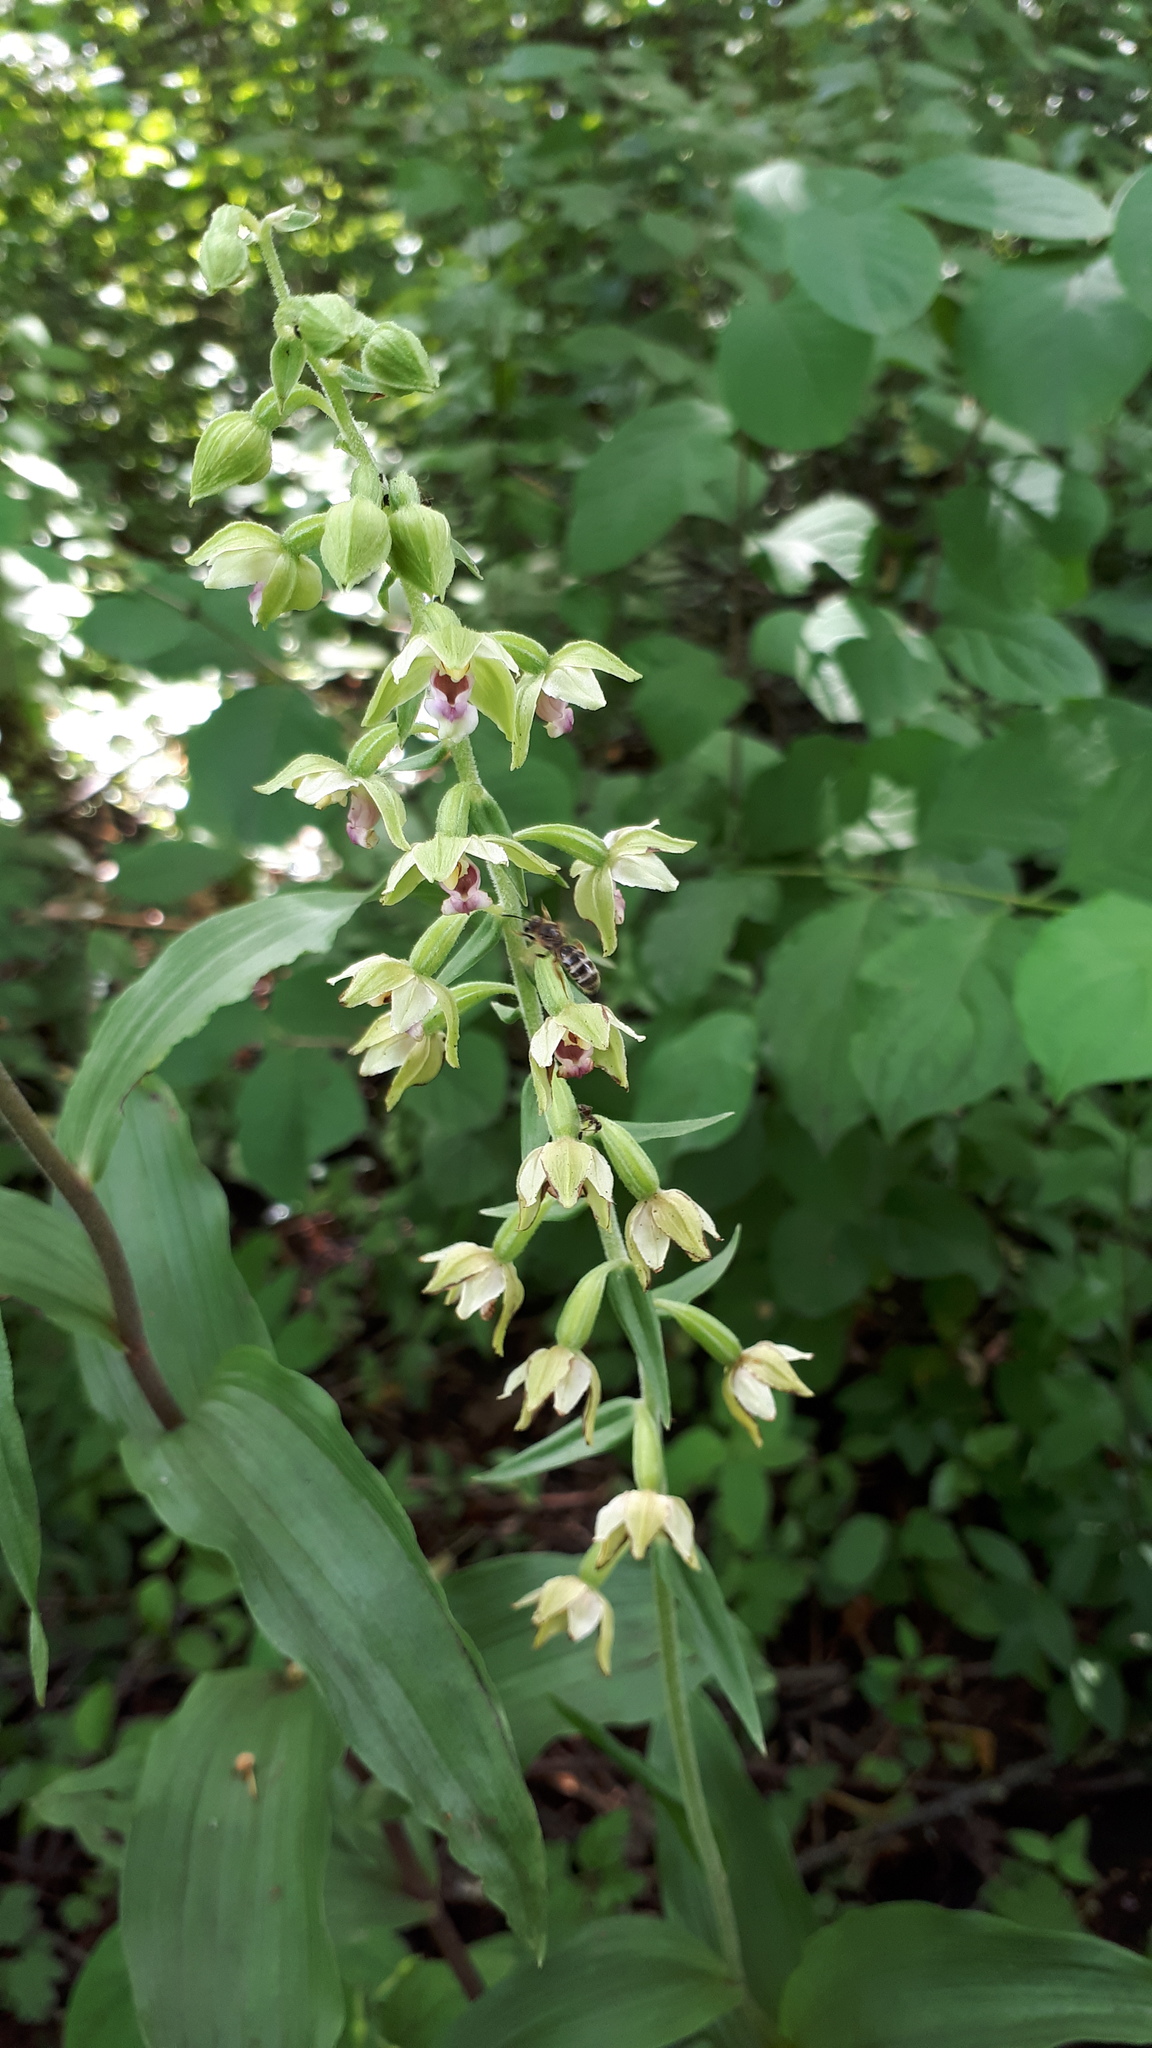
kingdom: Plantae
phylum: Tracheophyta
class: Liliopsida
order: Asparagales
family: Orchidaceae
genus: Epipactis
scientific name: Epipactis helleborine
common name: Broad-leaved helleborine
